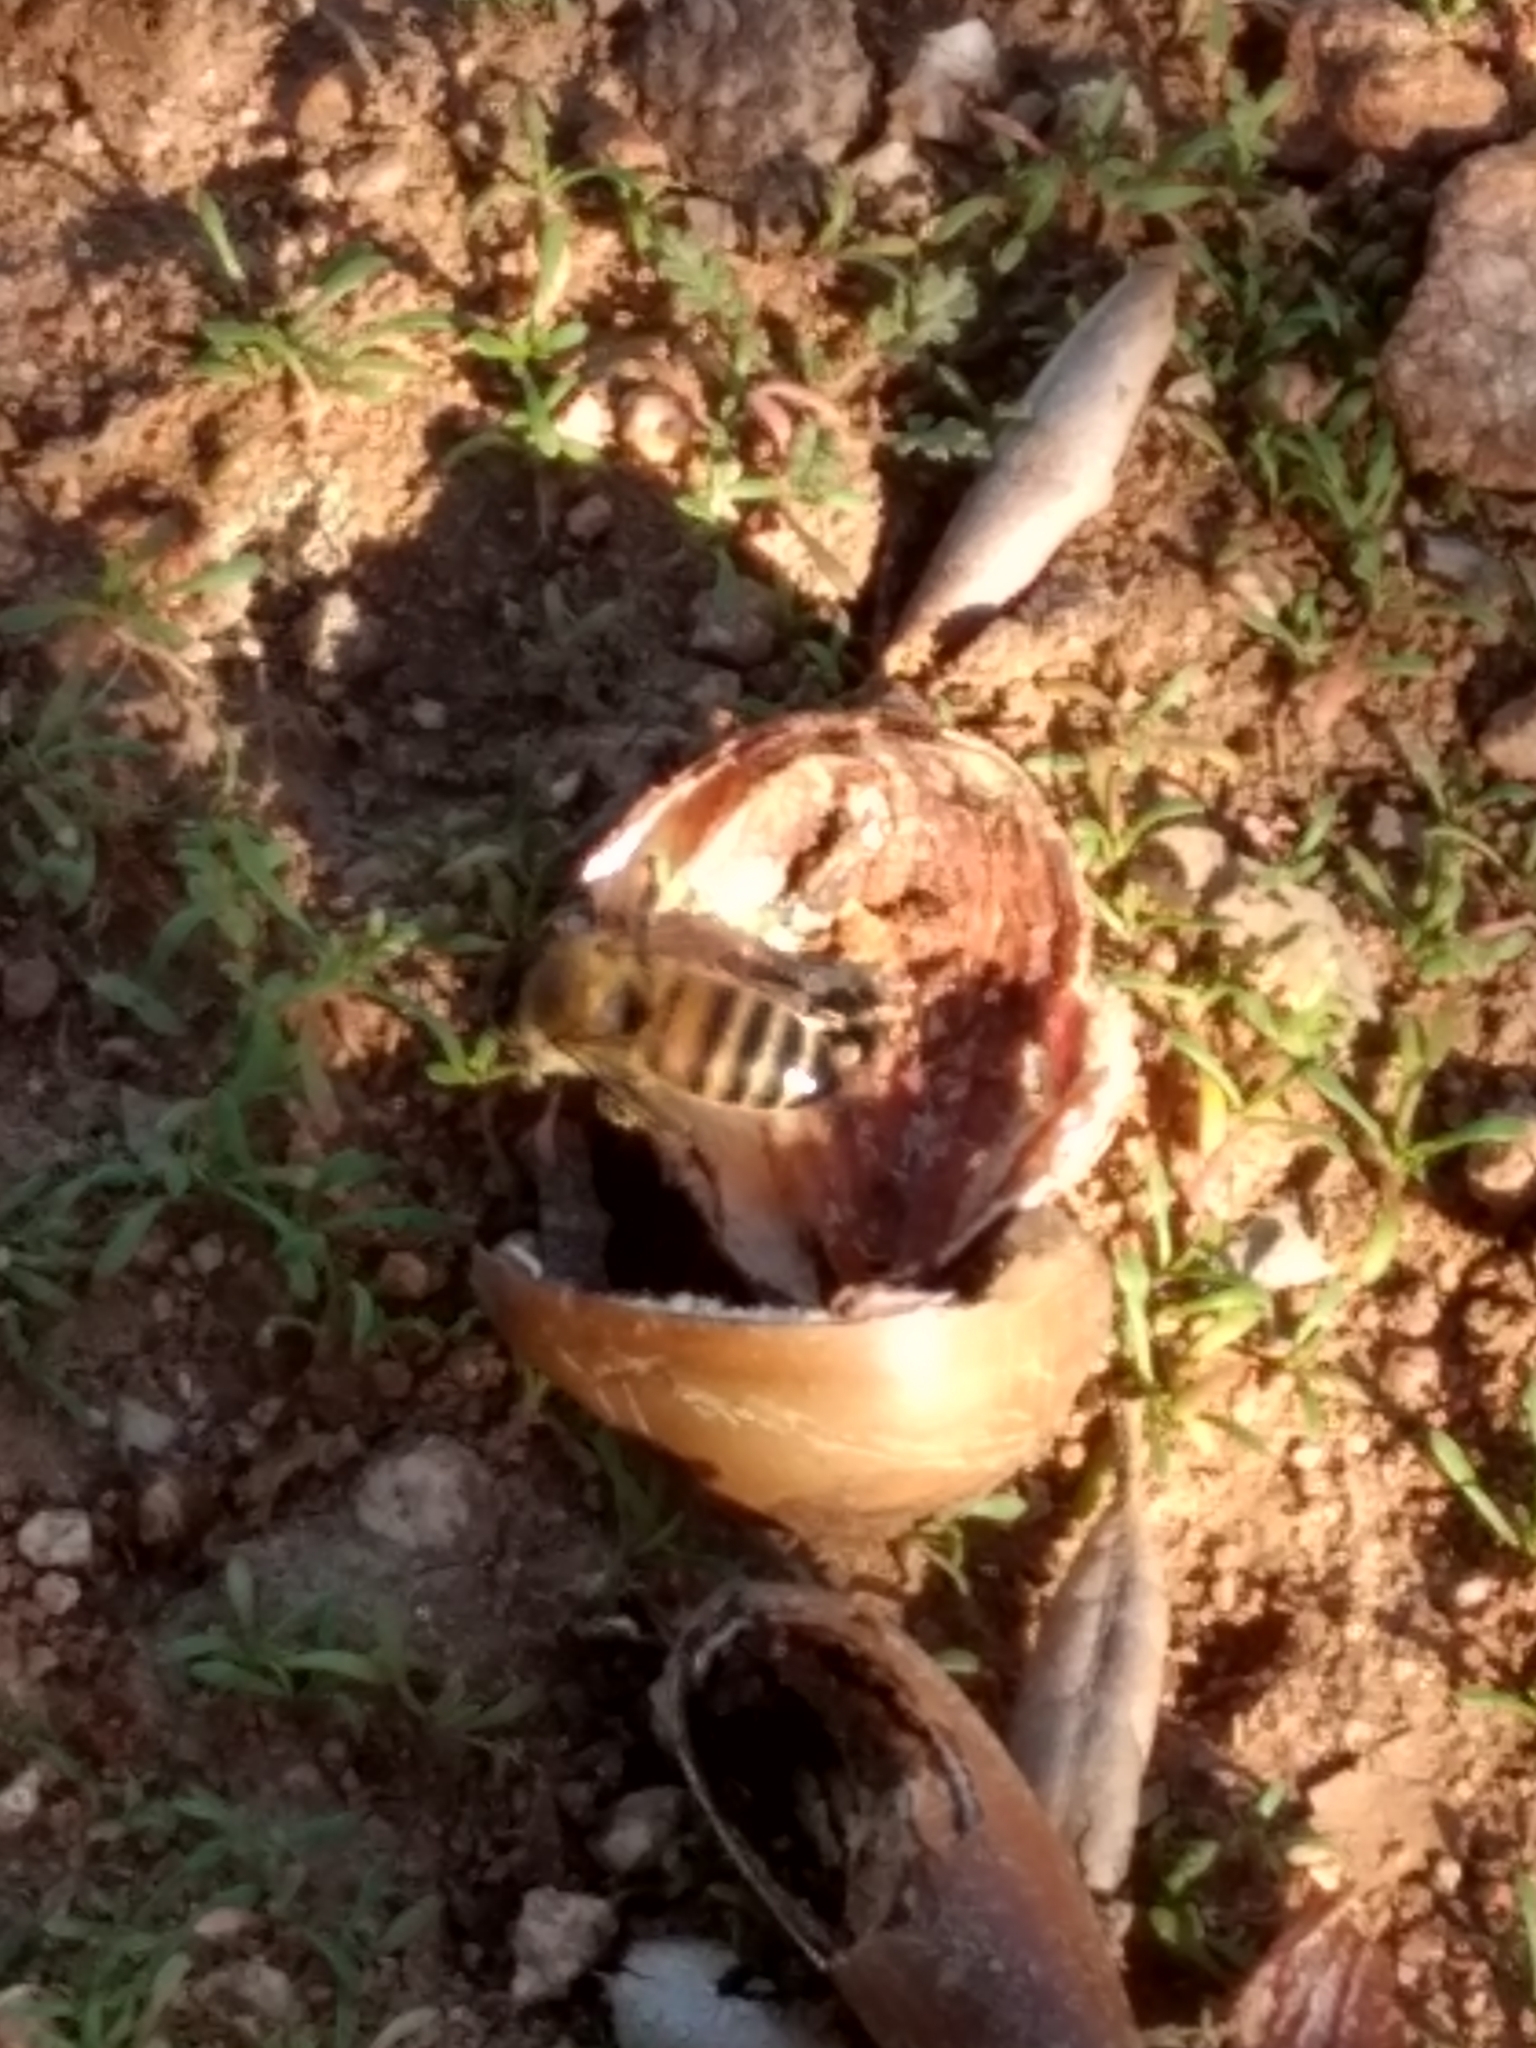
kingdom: Animalia
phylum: Arthropoda
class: Insecta
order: Hymenoptera
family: Apidae
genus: Apis
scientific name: Apis mellifera
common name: Honey bee
